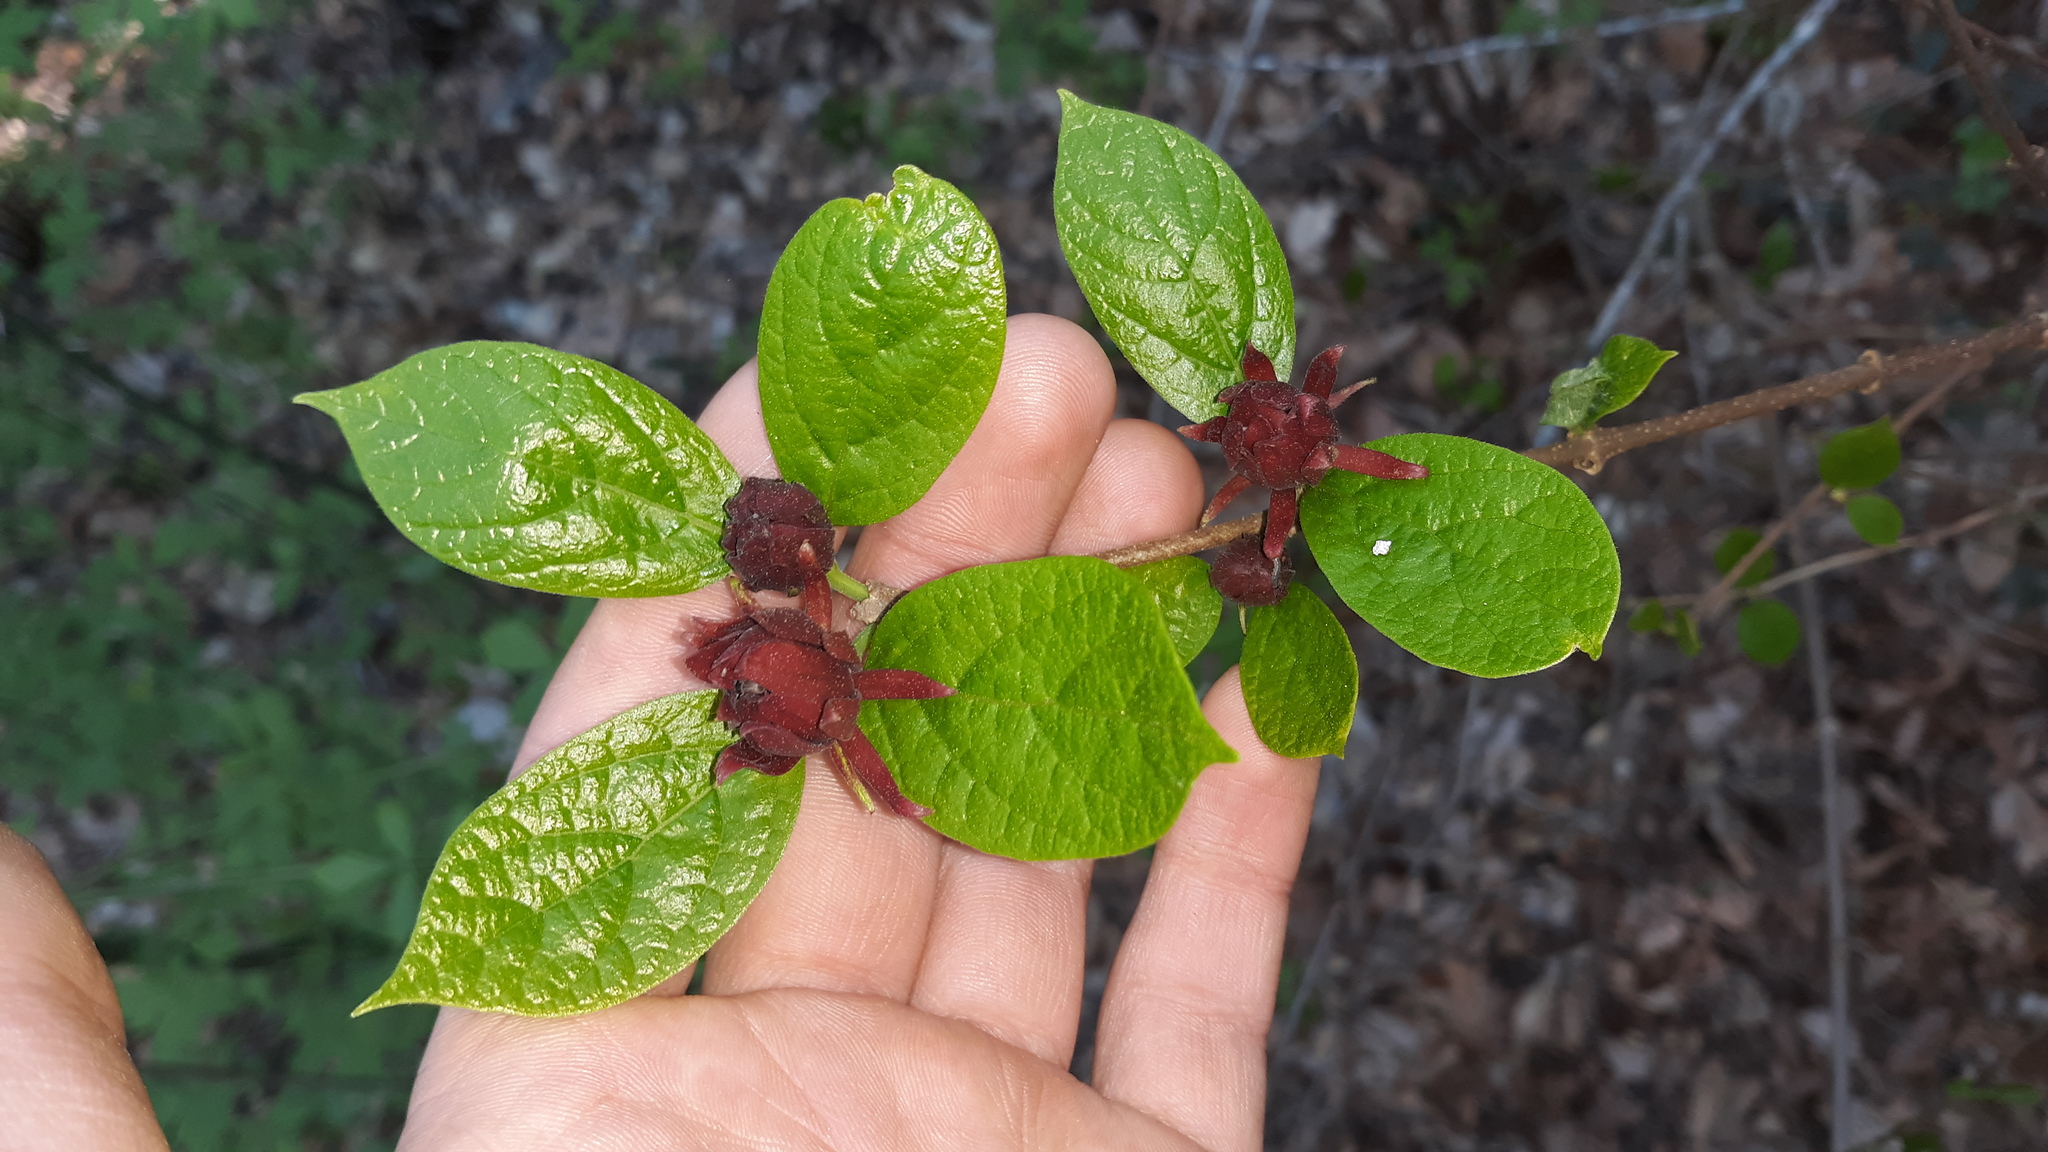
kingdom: Plantae
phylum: Tracheophyta
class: Magnoliopsida
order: Laurales
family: Calycanthaceae
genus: Calycanthus
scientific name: Calycanthus floridus
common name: Carolina-allspice
